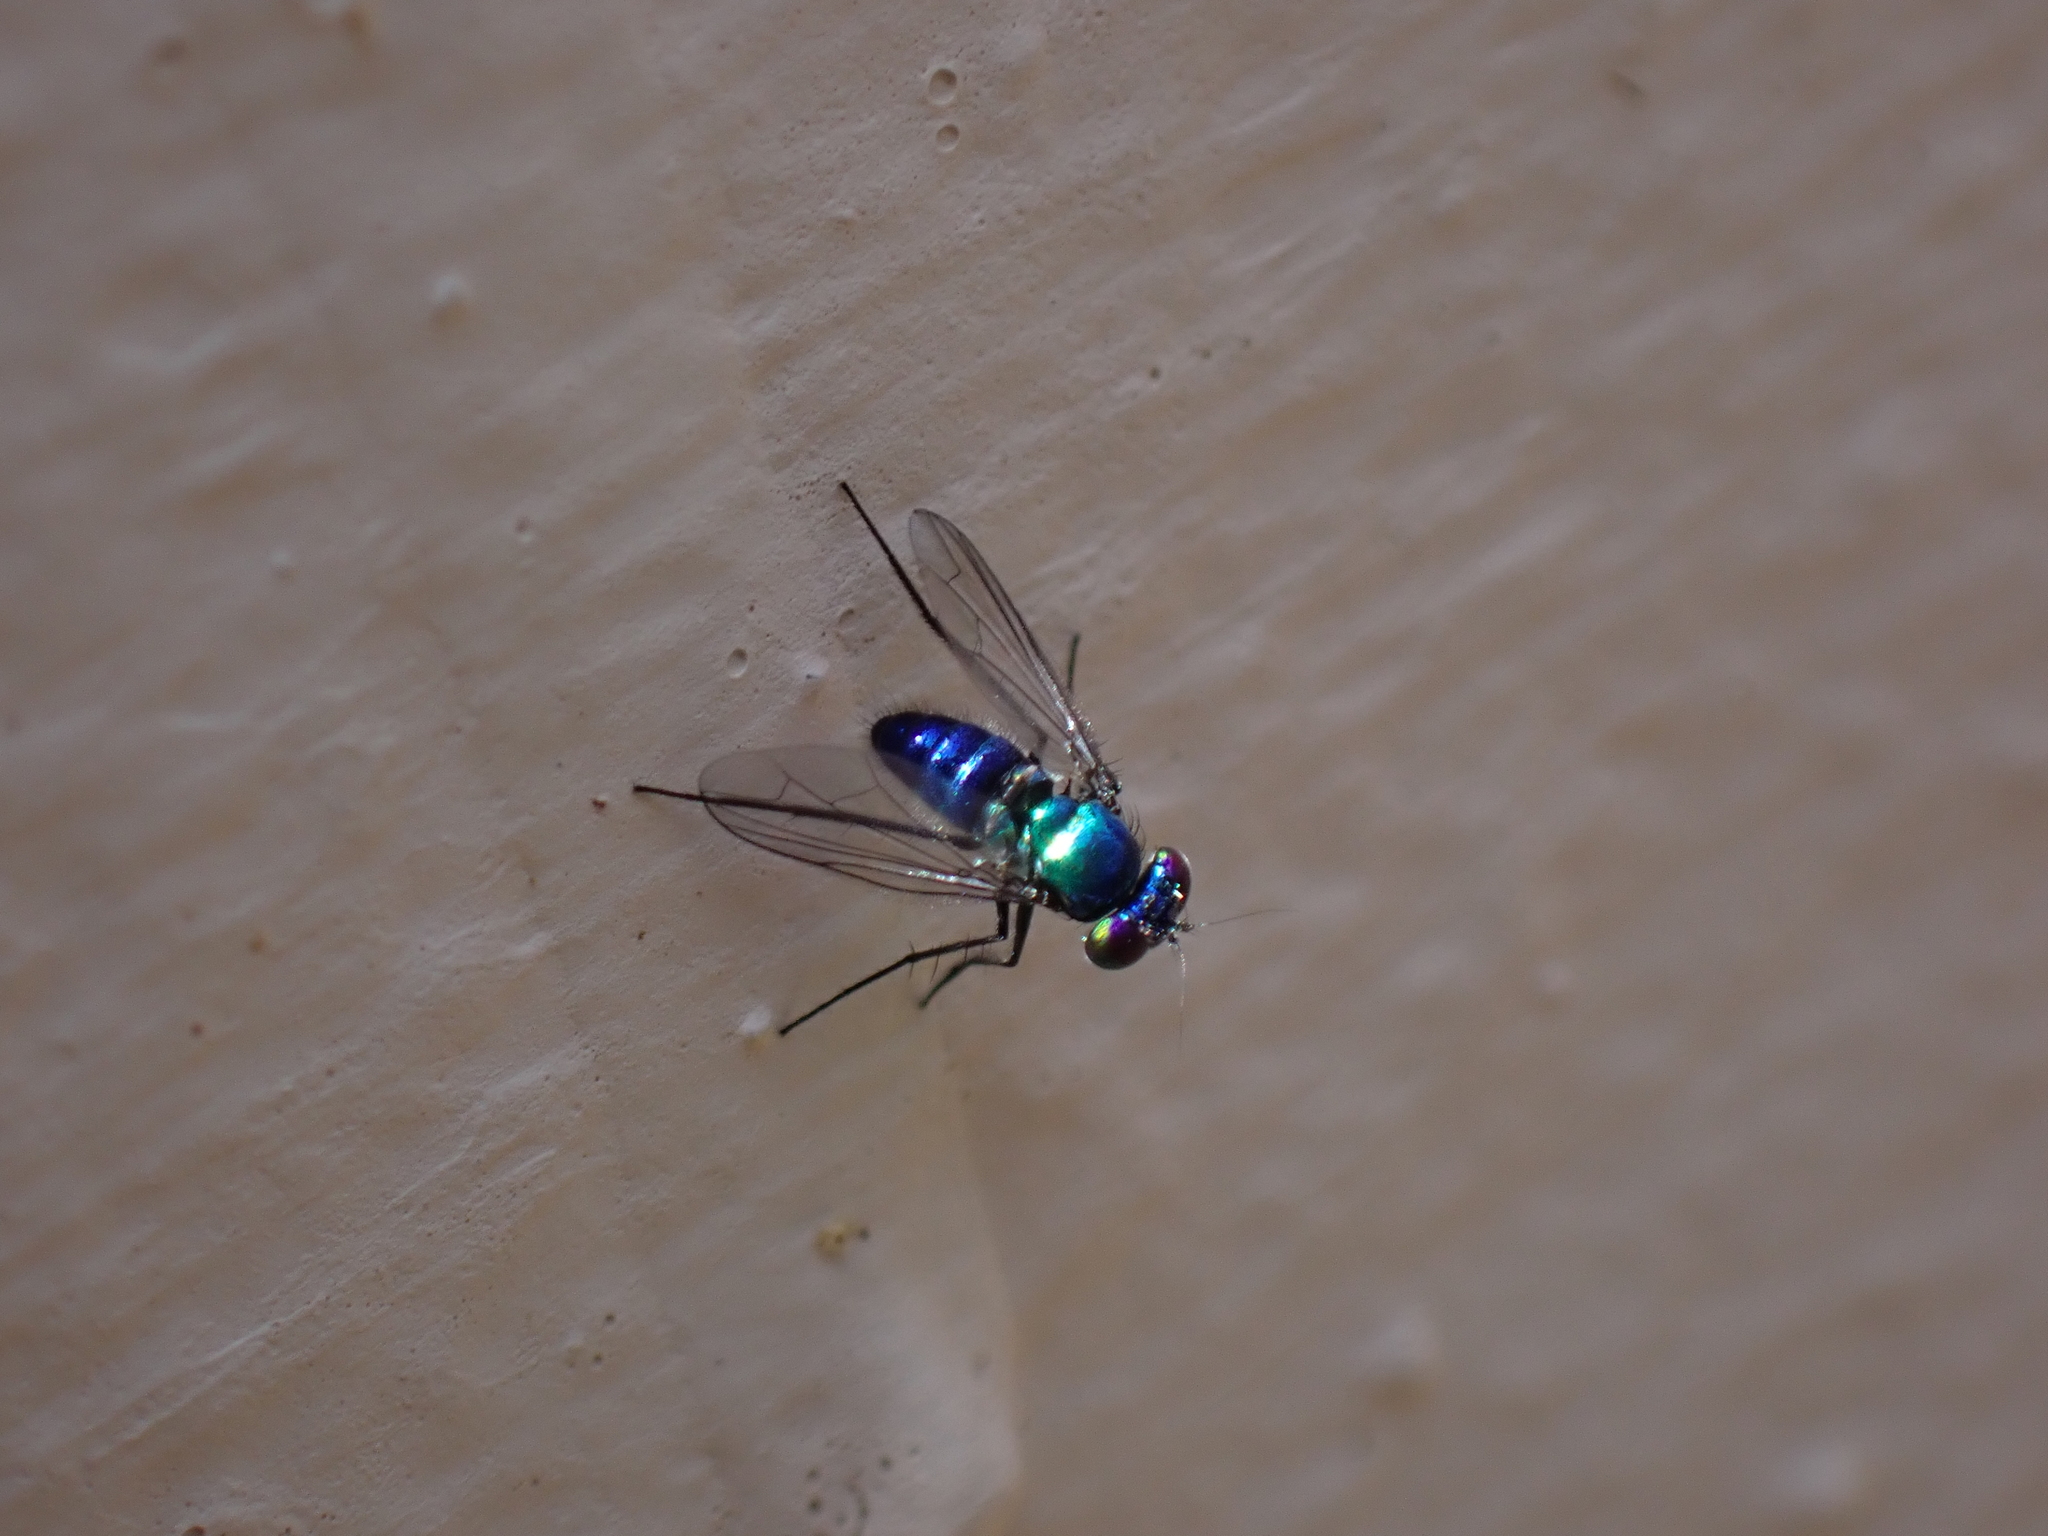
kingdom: Animalia
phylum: Arthropoda
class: Insecta
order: Diptera
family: Dolichopodidae
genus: Condylostylus
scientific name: Condylostylus mundus
